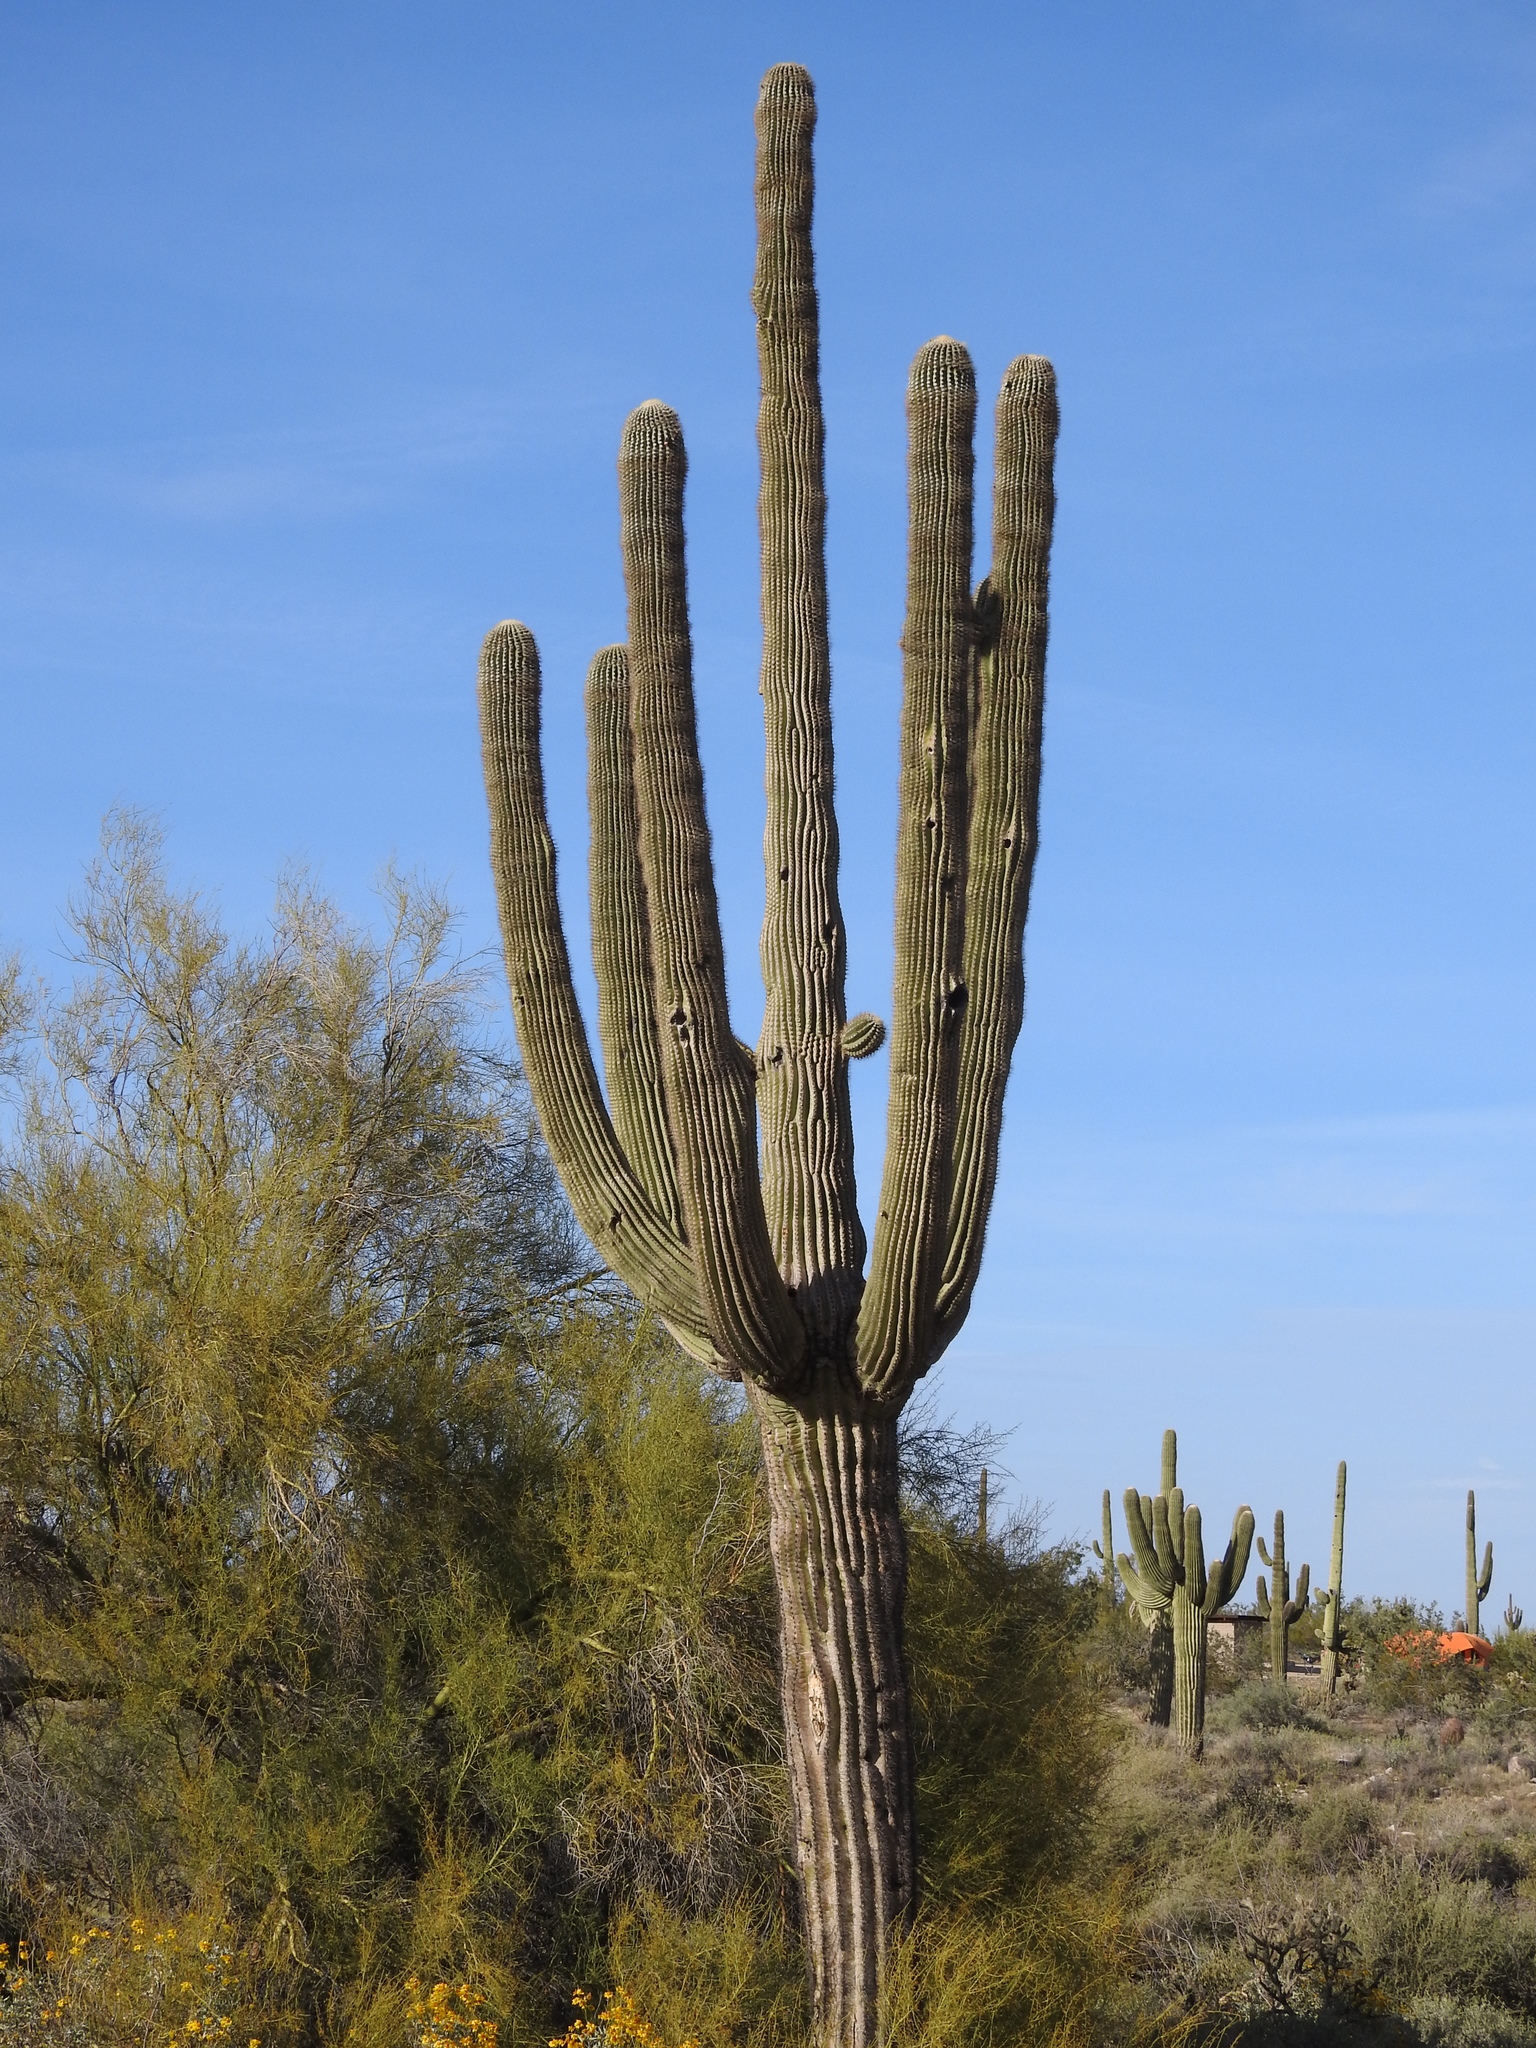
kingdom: Plantae
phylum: Tracheophyta
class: Magnoliopsida
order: Caryophyllales
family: Cactaceae
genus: Carnegiea
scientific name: Carnegiea gigantea
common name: Saguaro
